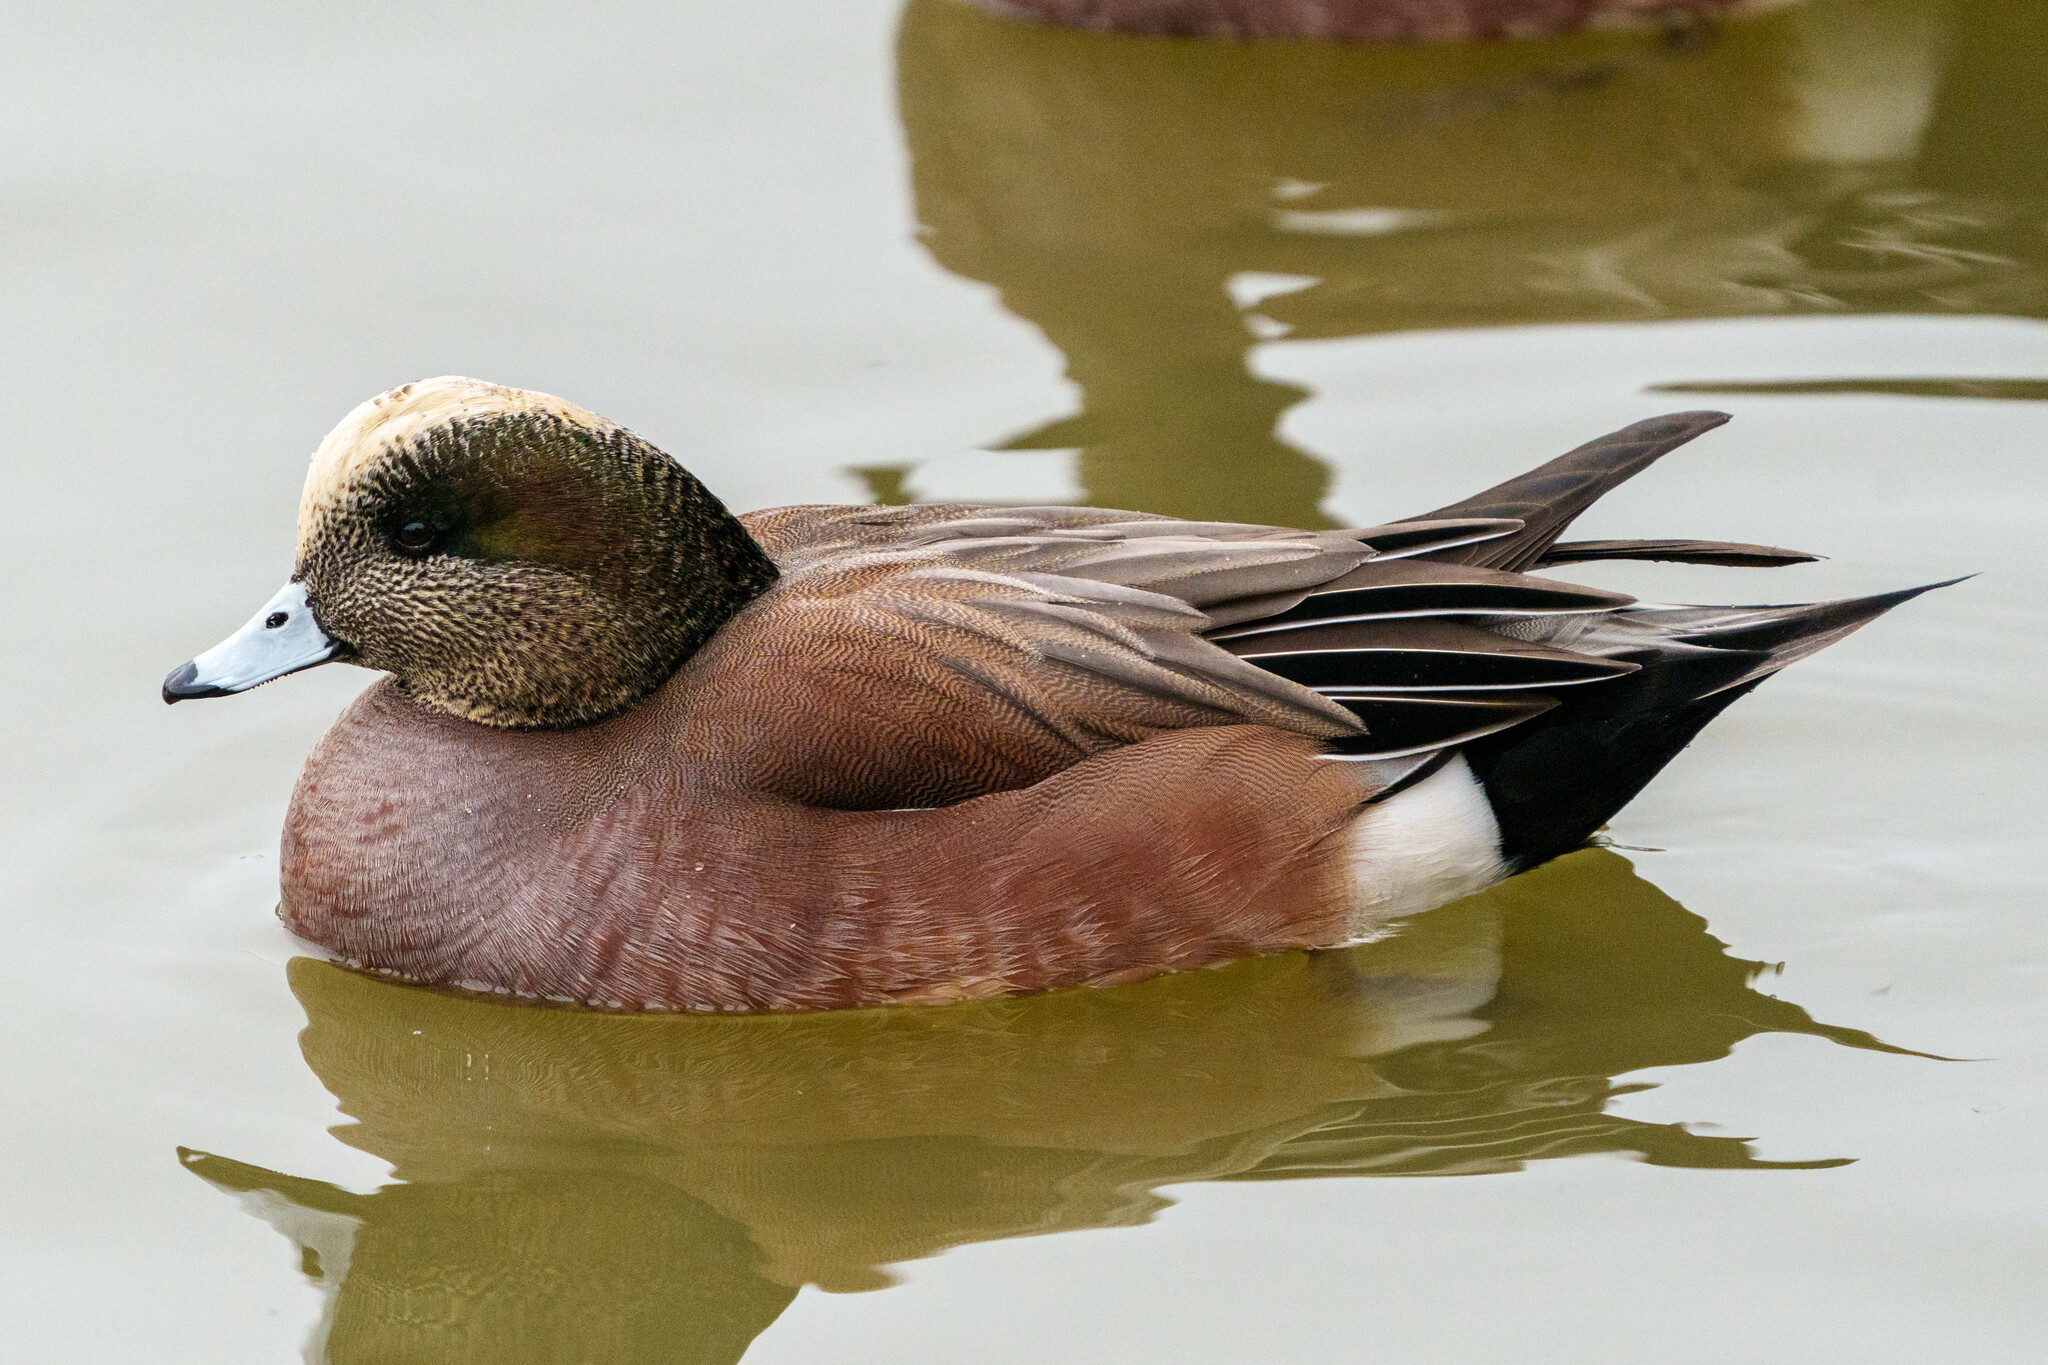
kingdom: Animalia
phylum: Chordata
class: Aves
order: Anseriformes
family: Anatidae
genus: Mareca
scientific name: Mareca americana
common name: American wigeon
